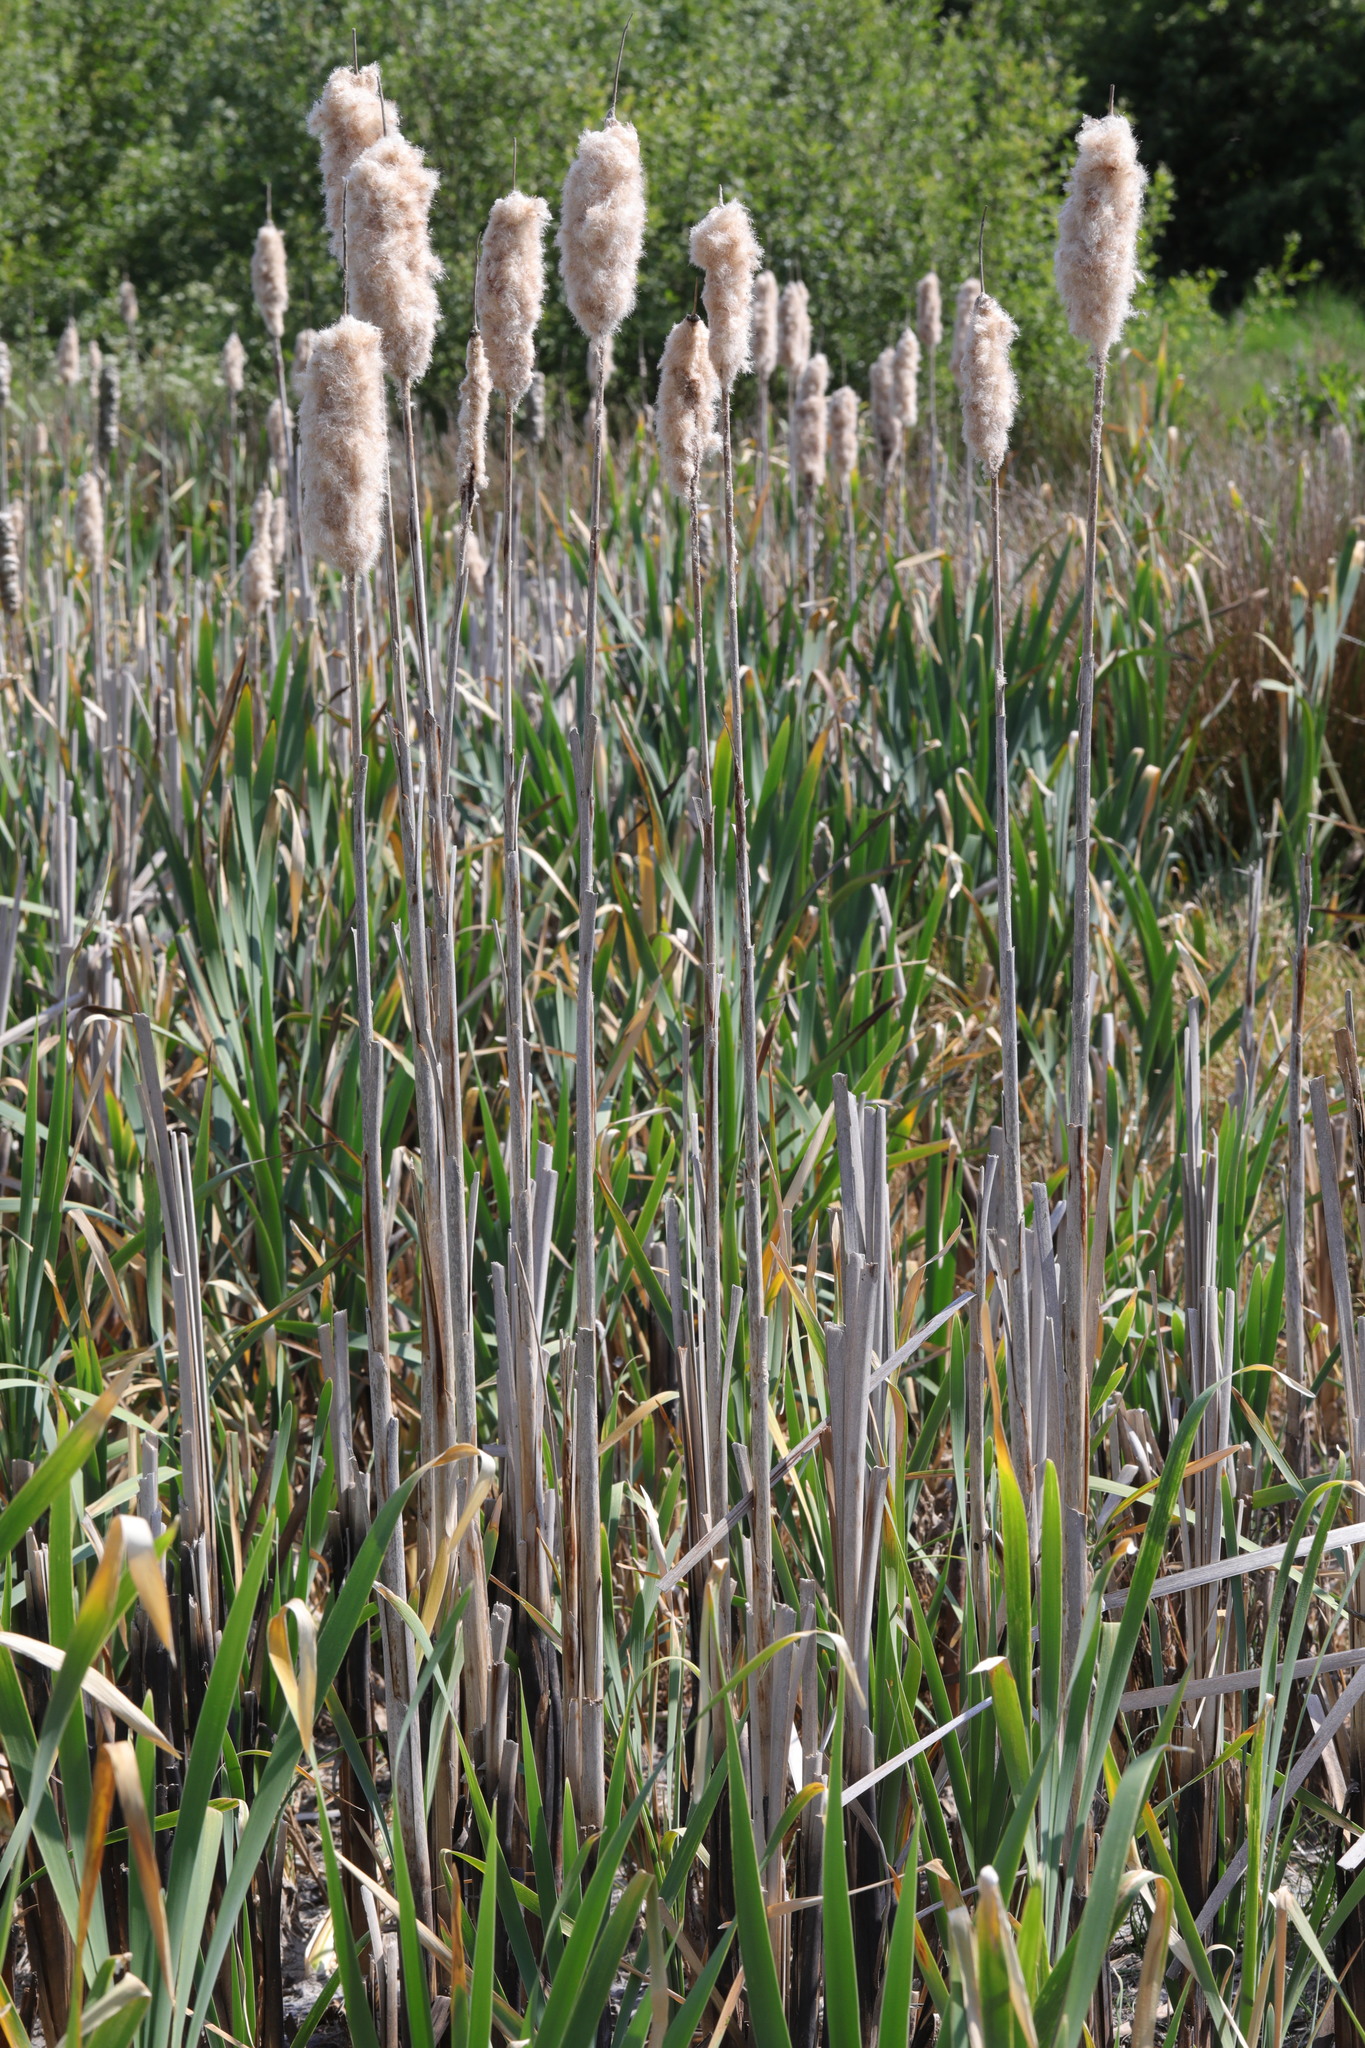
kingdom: Plantae
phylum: Tracheophyta
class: Liliopsida
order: Poales
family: Typhaceae
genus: Typha
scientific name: Typha latifolia
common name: Broadleaf cattail
